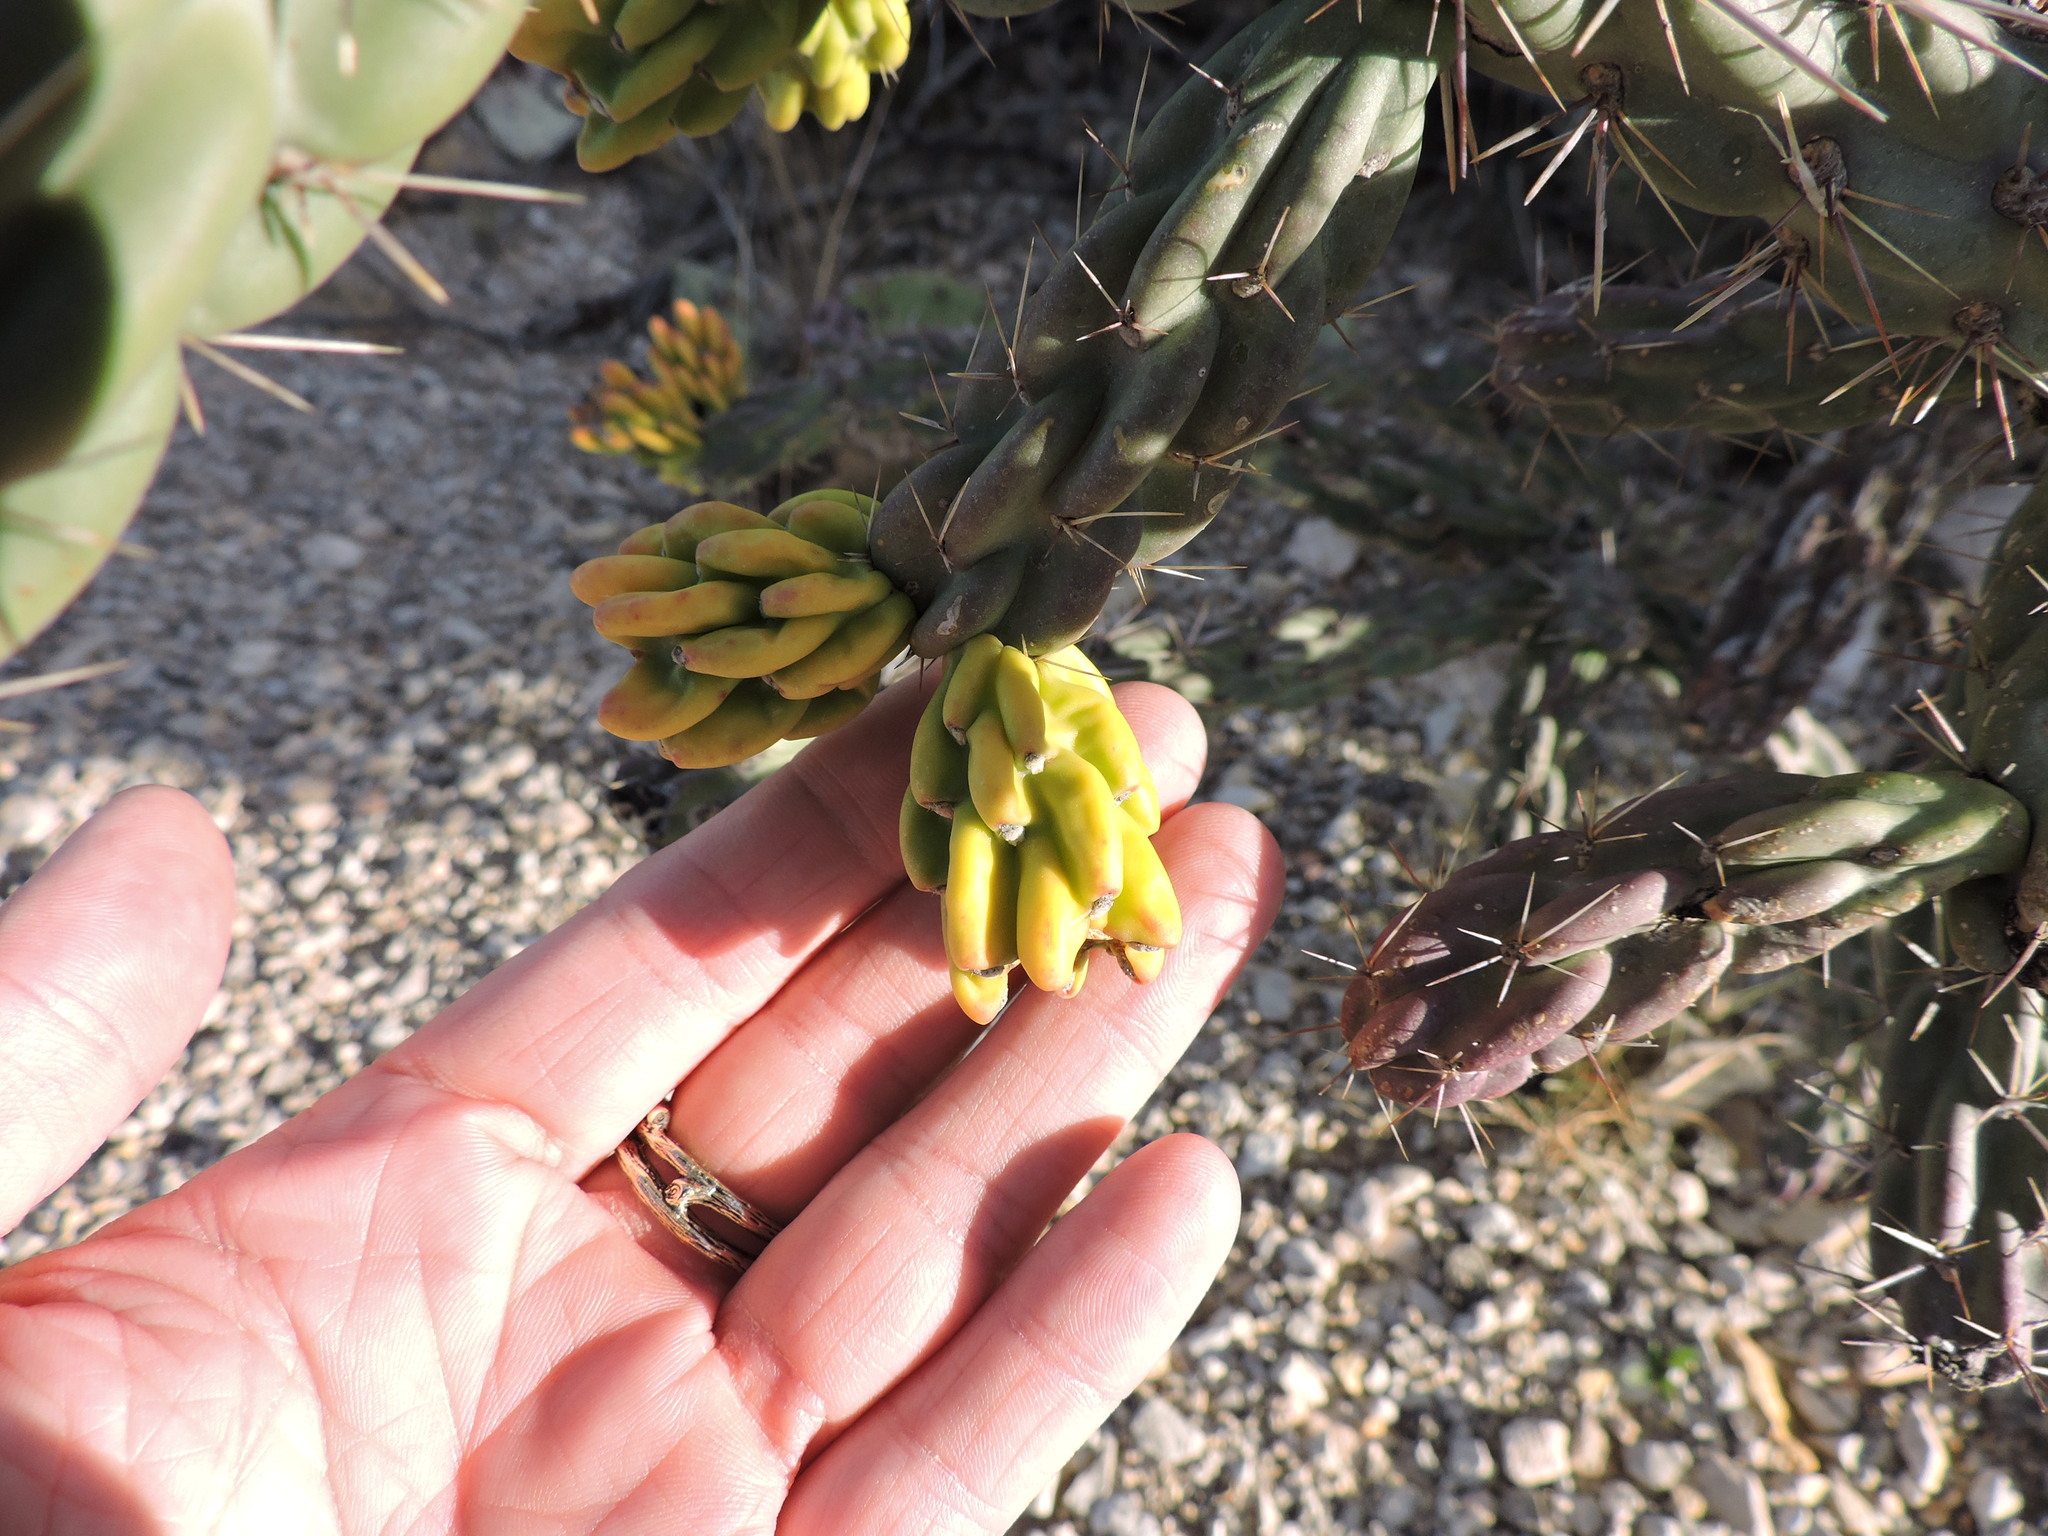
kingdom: Plantae
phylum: Tracheophyta
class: Magnoliopsida
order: Caryophyllales
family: Cactaceae
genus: Cylindropuntia
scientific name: Cylindropuntia imbricata
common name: Candelabrum cactus
